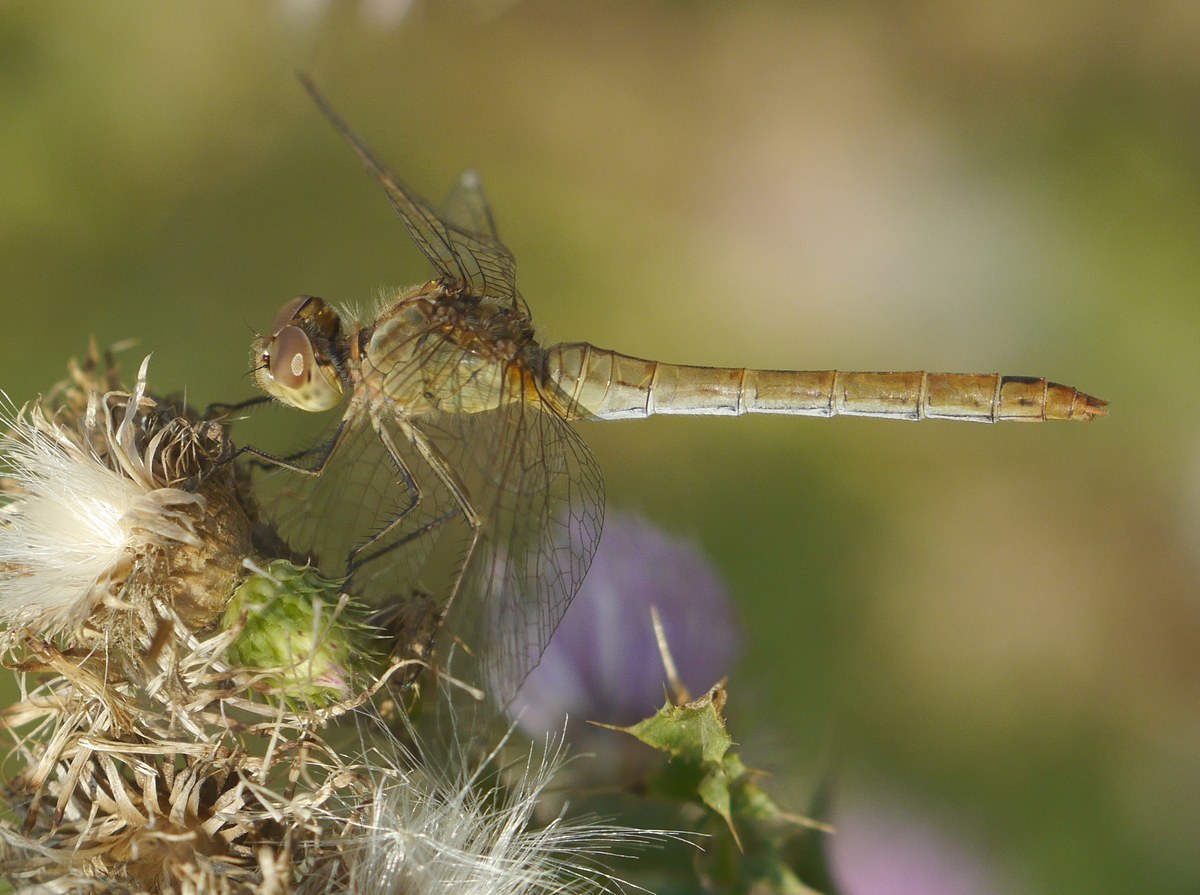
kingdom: Animalia
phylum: Arthropoda
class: Insecta
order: Odonata
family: Libellulidae
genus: Sympetrum
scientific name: Sympetrum meridionale
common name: Southern darter
